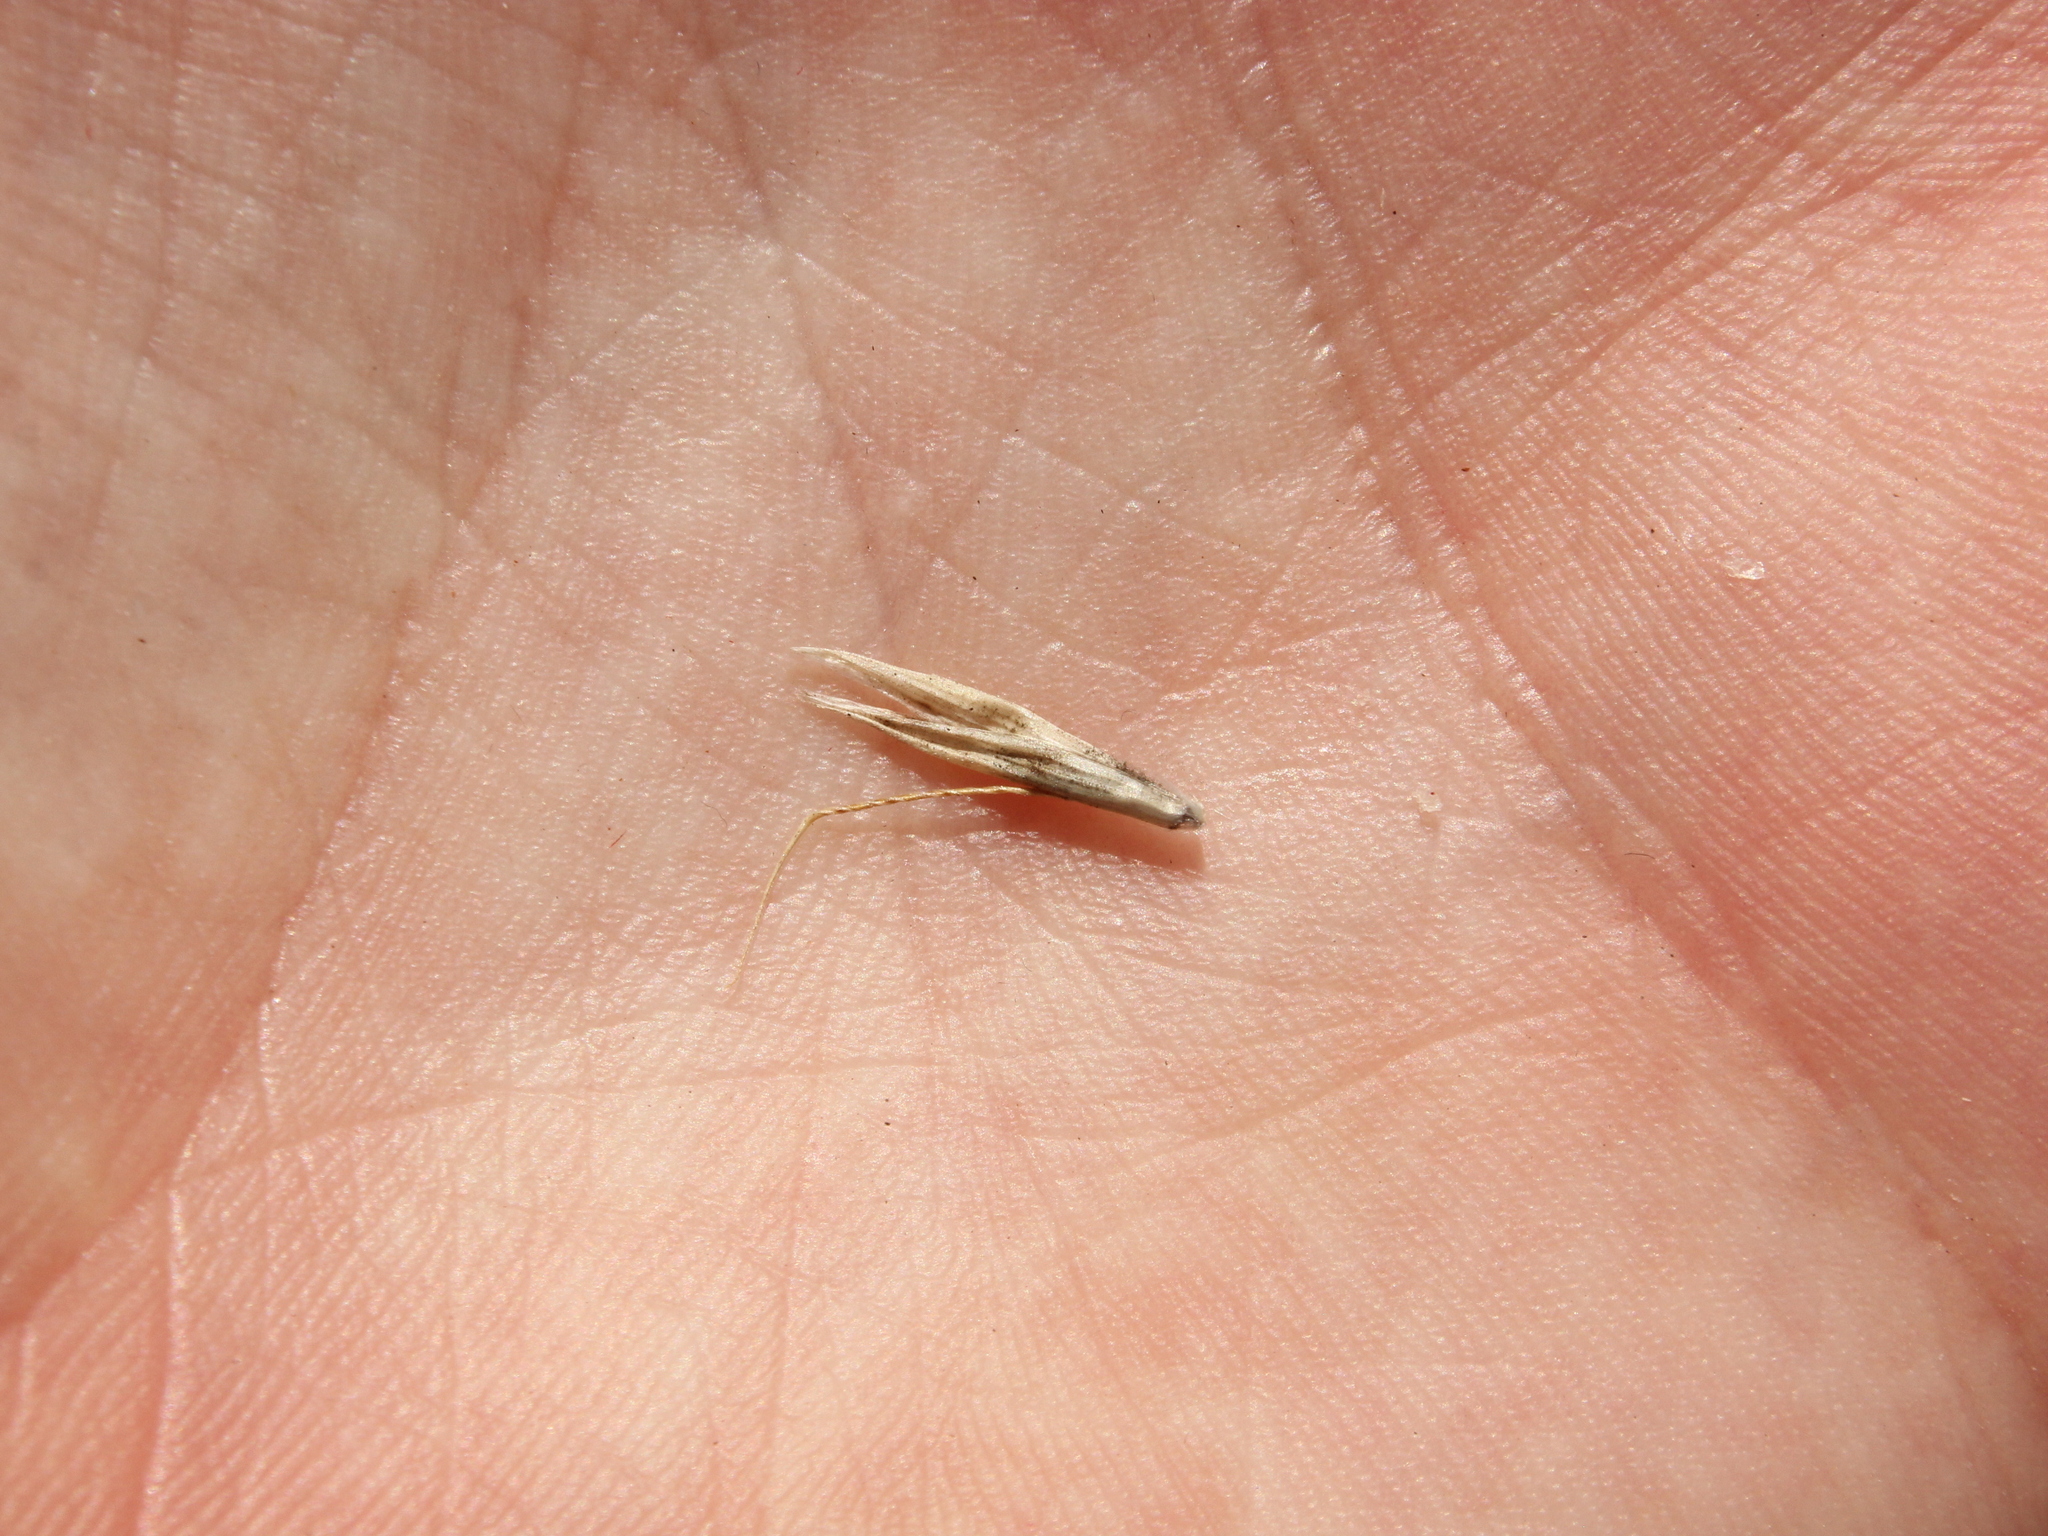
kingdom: Plantae
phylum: Tracheophyta
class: Liliopsida
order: Poales
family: Poaceae
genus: Arrhenatherum
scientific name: Arrhenatherum elatius
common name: Tall oatgrass
